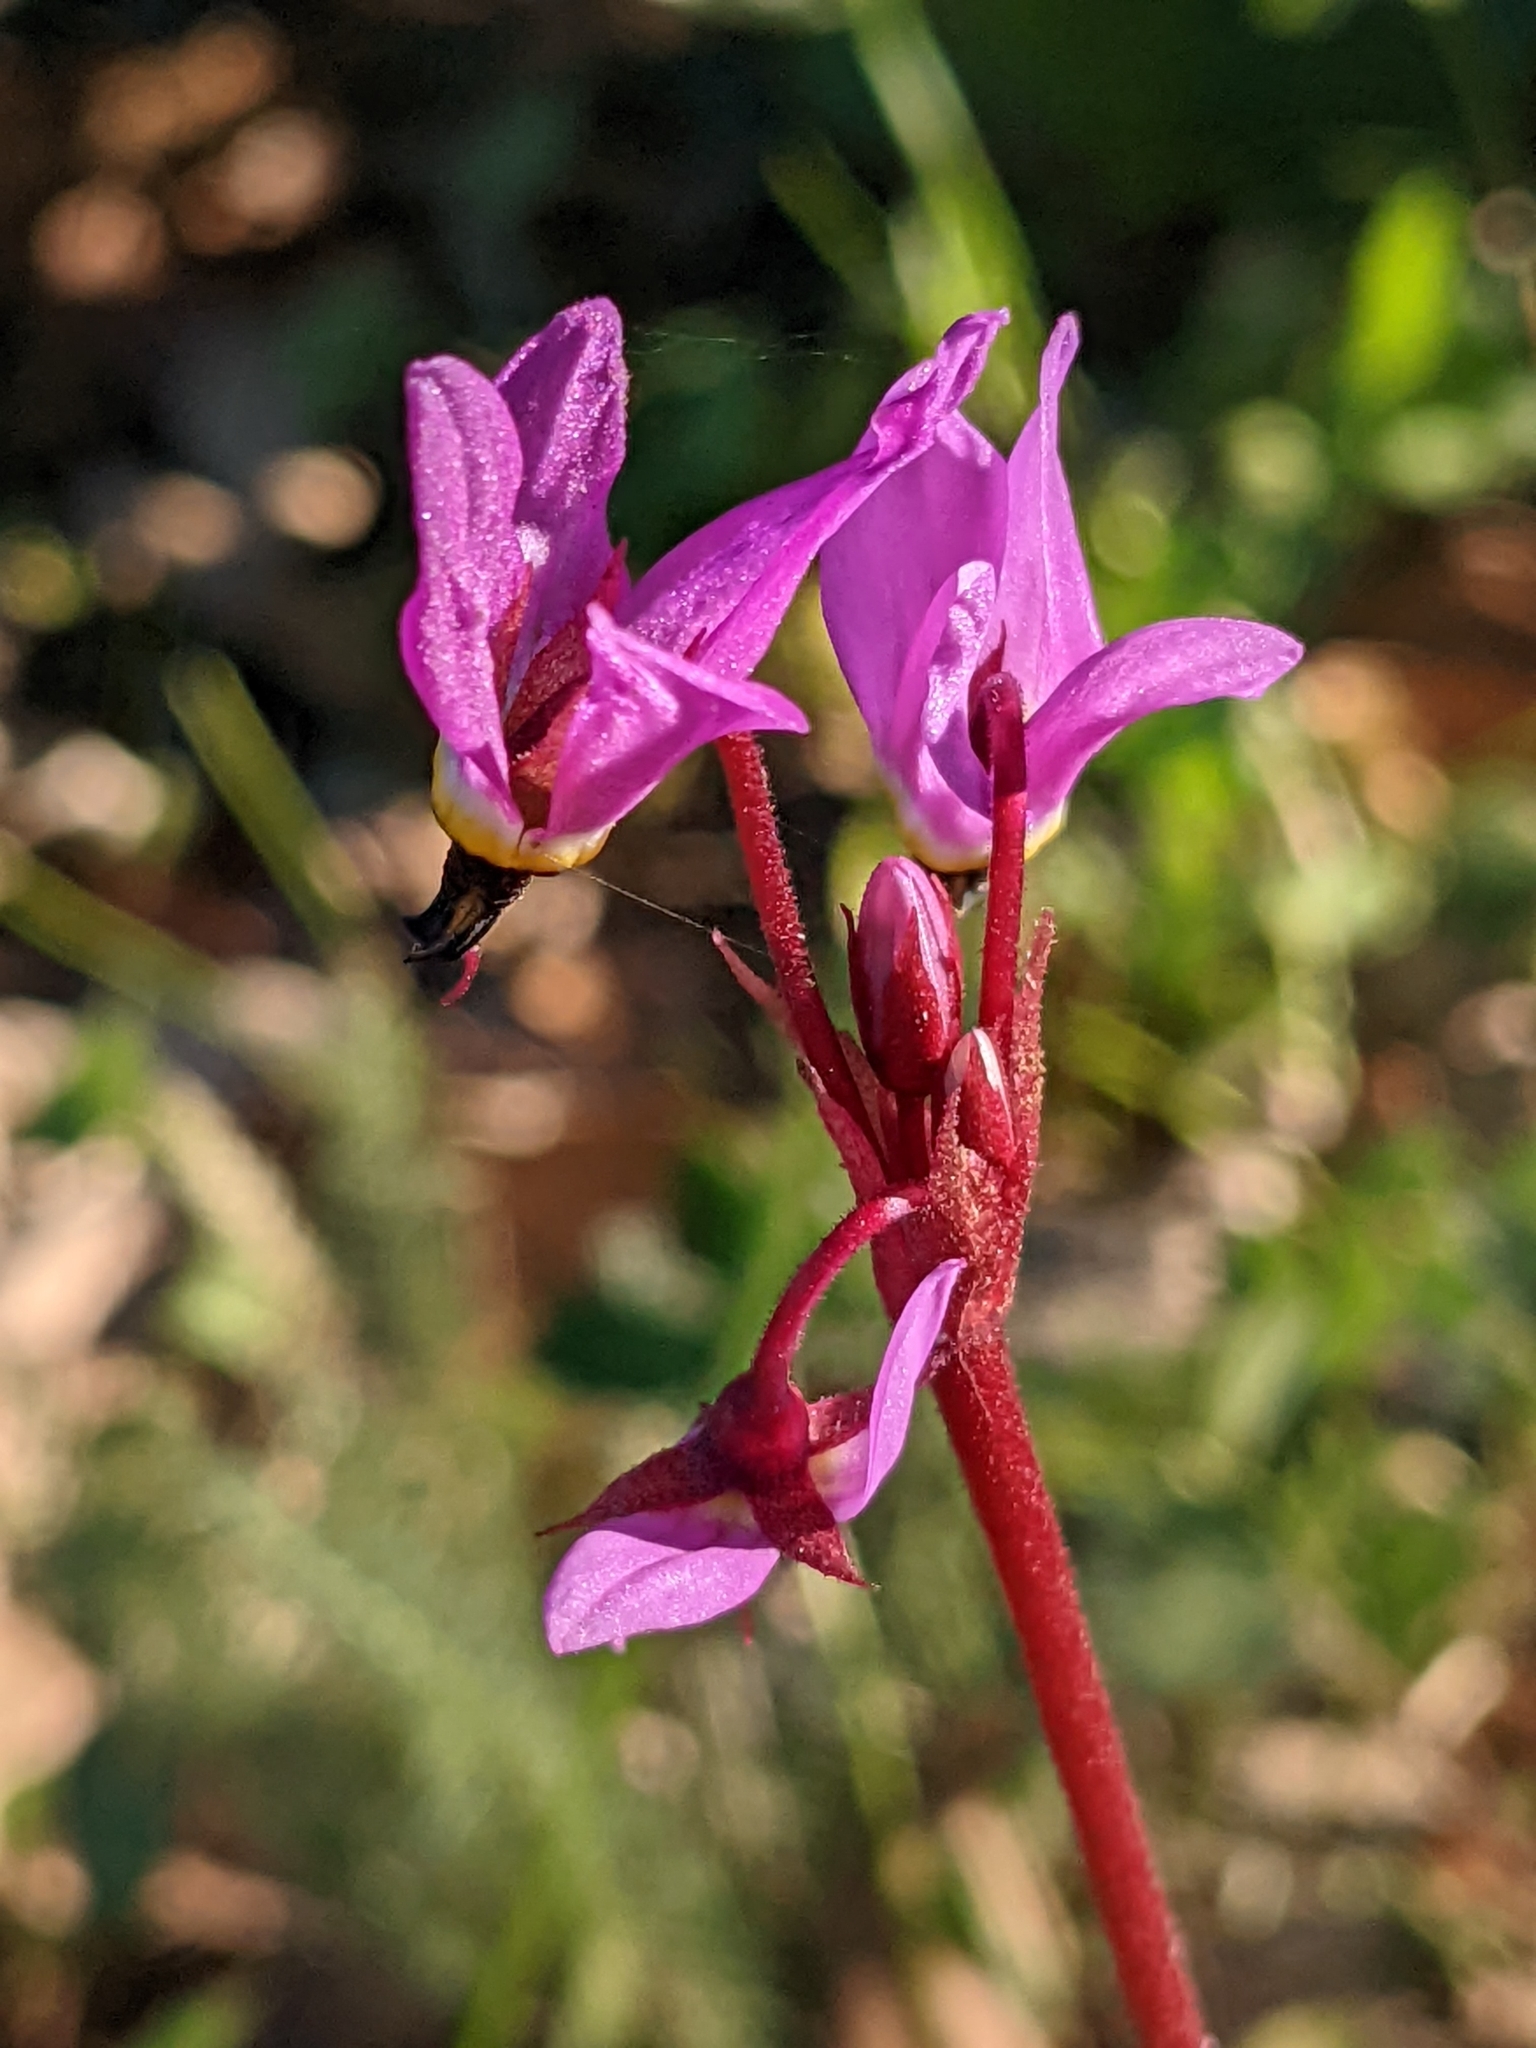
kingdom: Plantae
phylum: Tracheophyta
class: Magnoliopsida
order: Ericales
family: Primulaceae
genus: Dodecatheon
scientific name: Dodecatheon hendersonii
